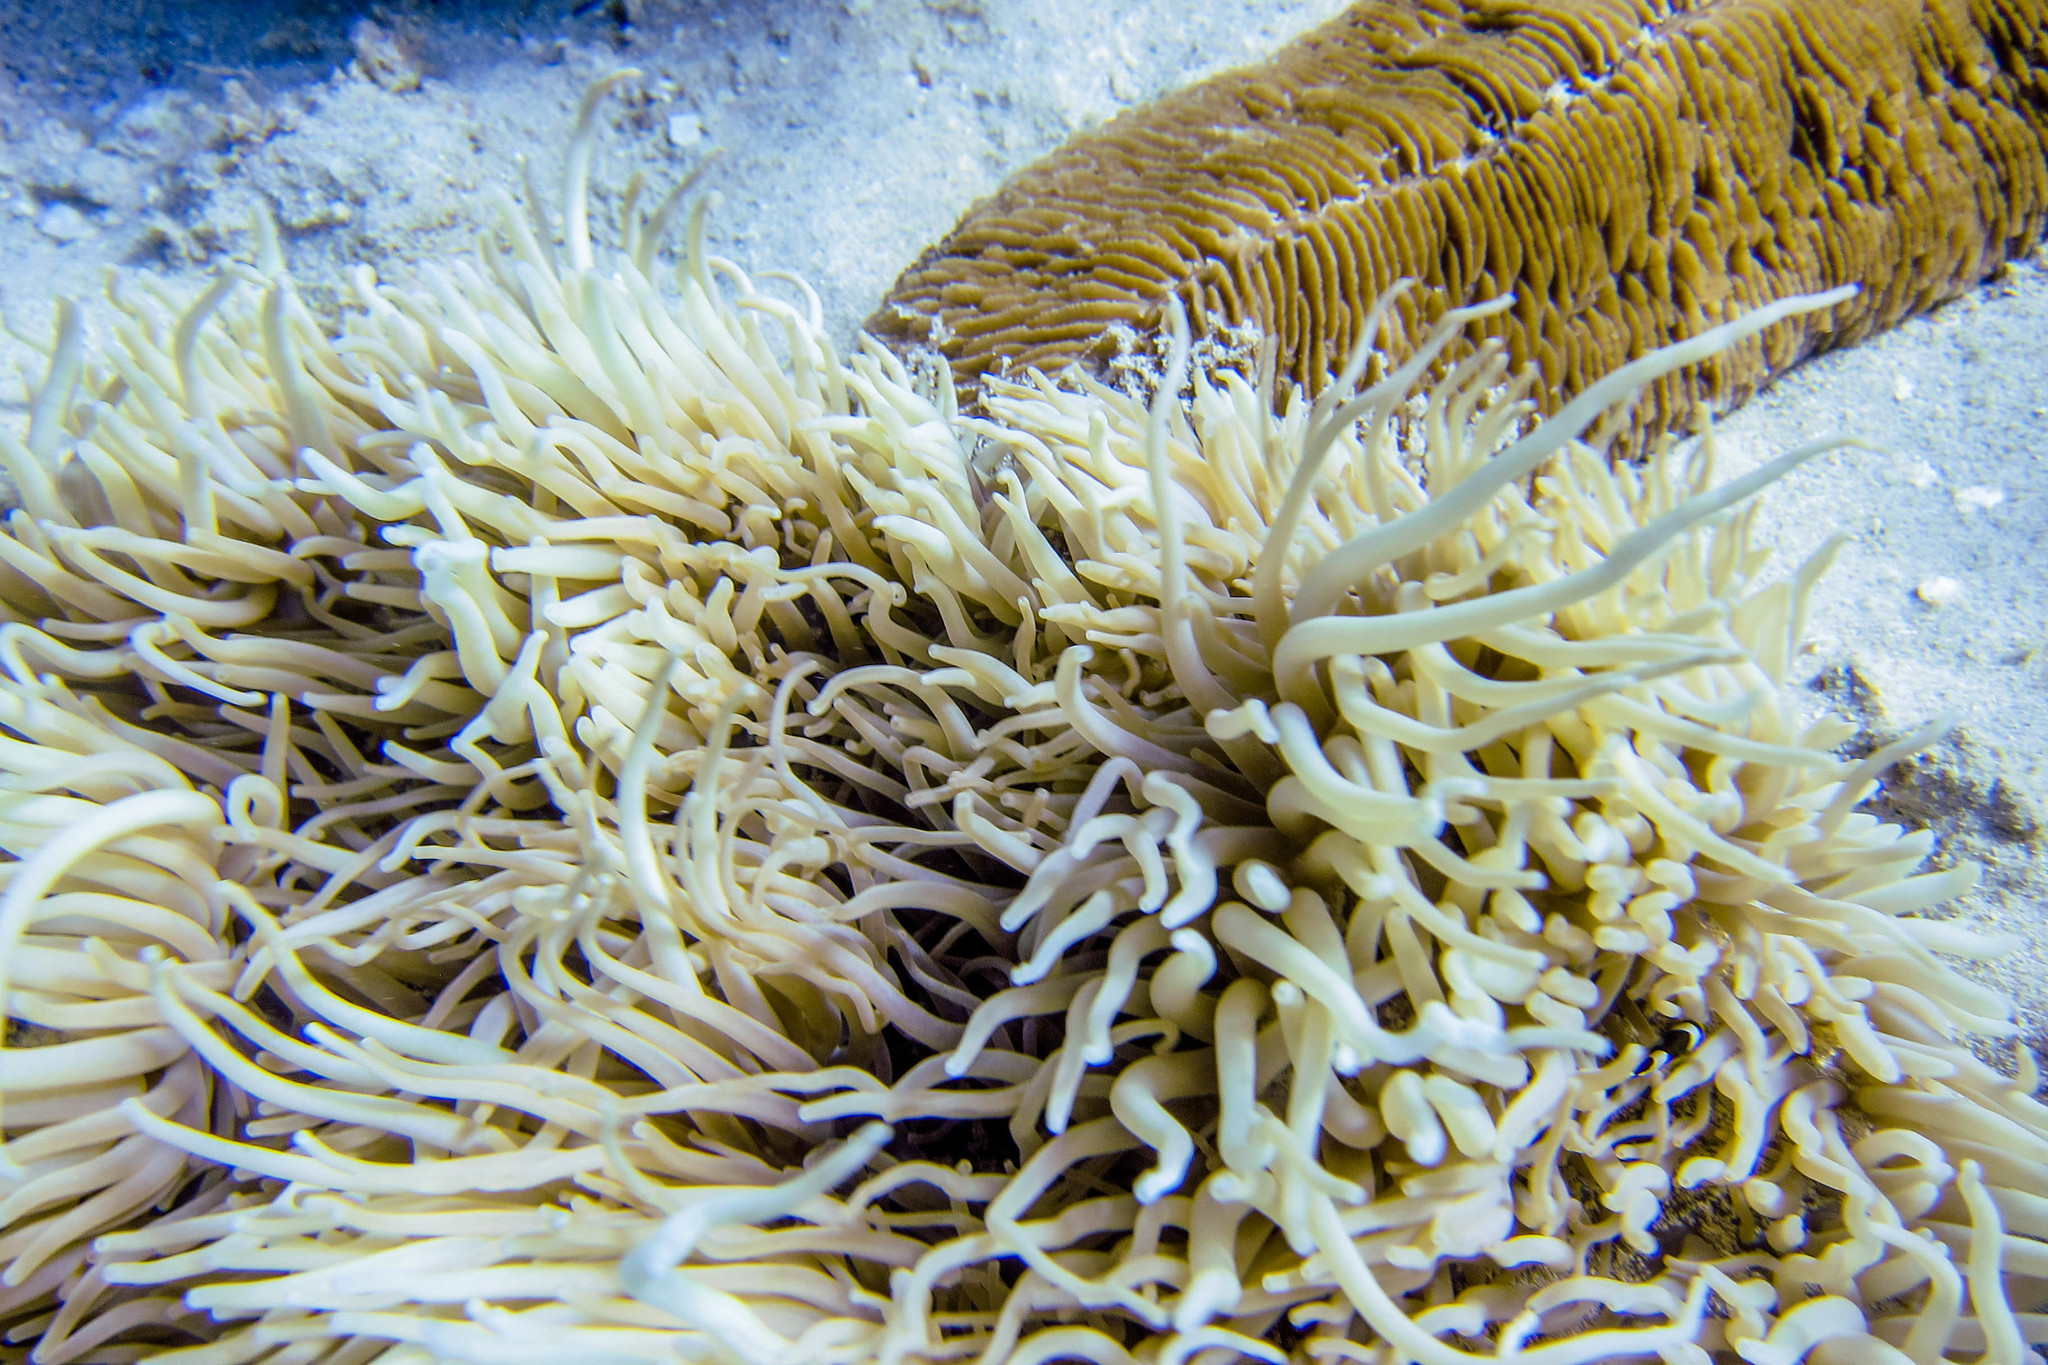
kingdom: Animalia
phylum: Cnidaria
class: Anthozoa
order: Actiniaria
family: Stichodactylidae
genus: Radianthus
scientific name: Radianthus crispa
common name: Leather anemone
